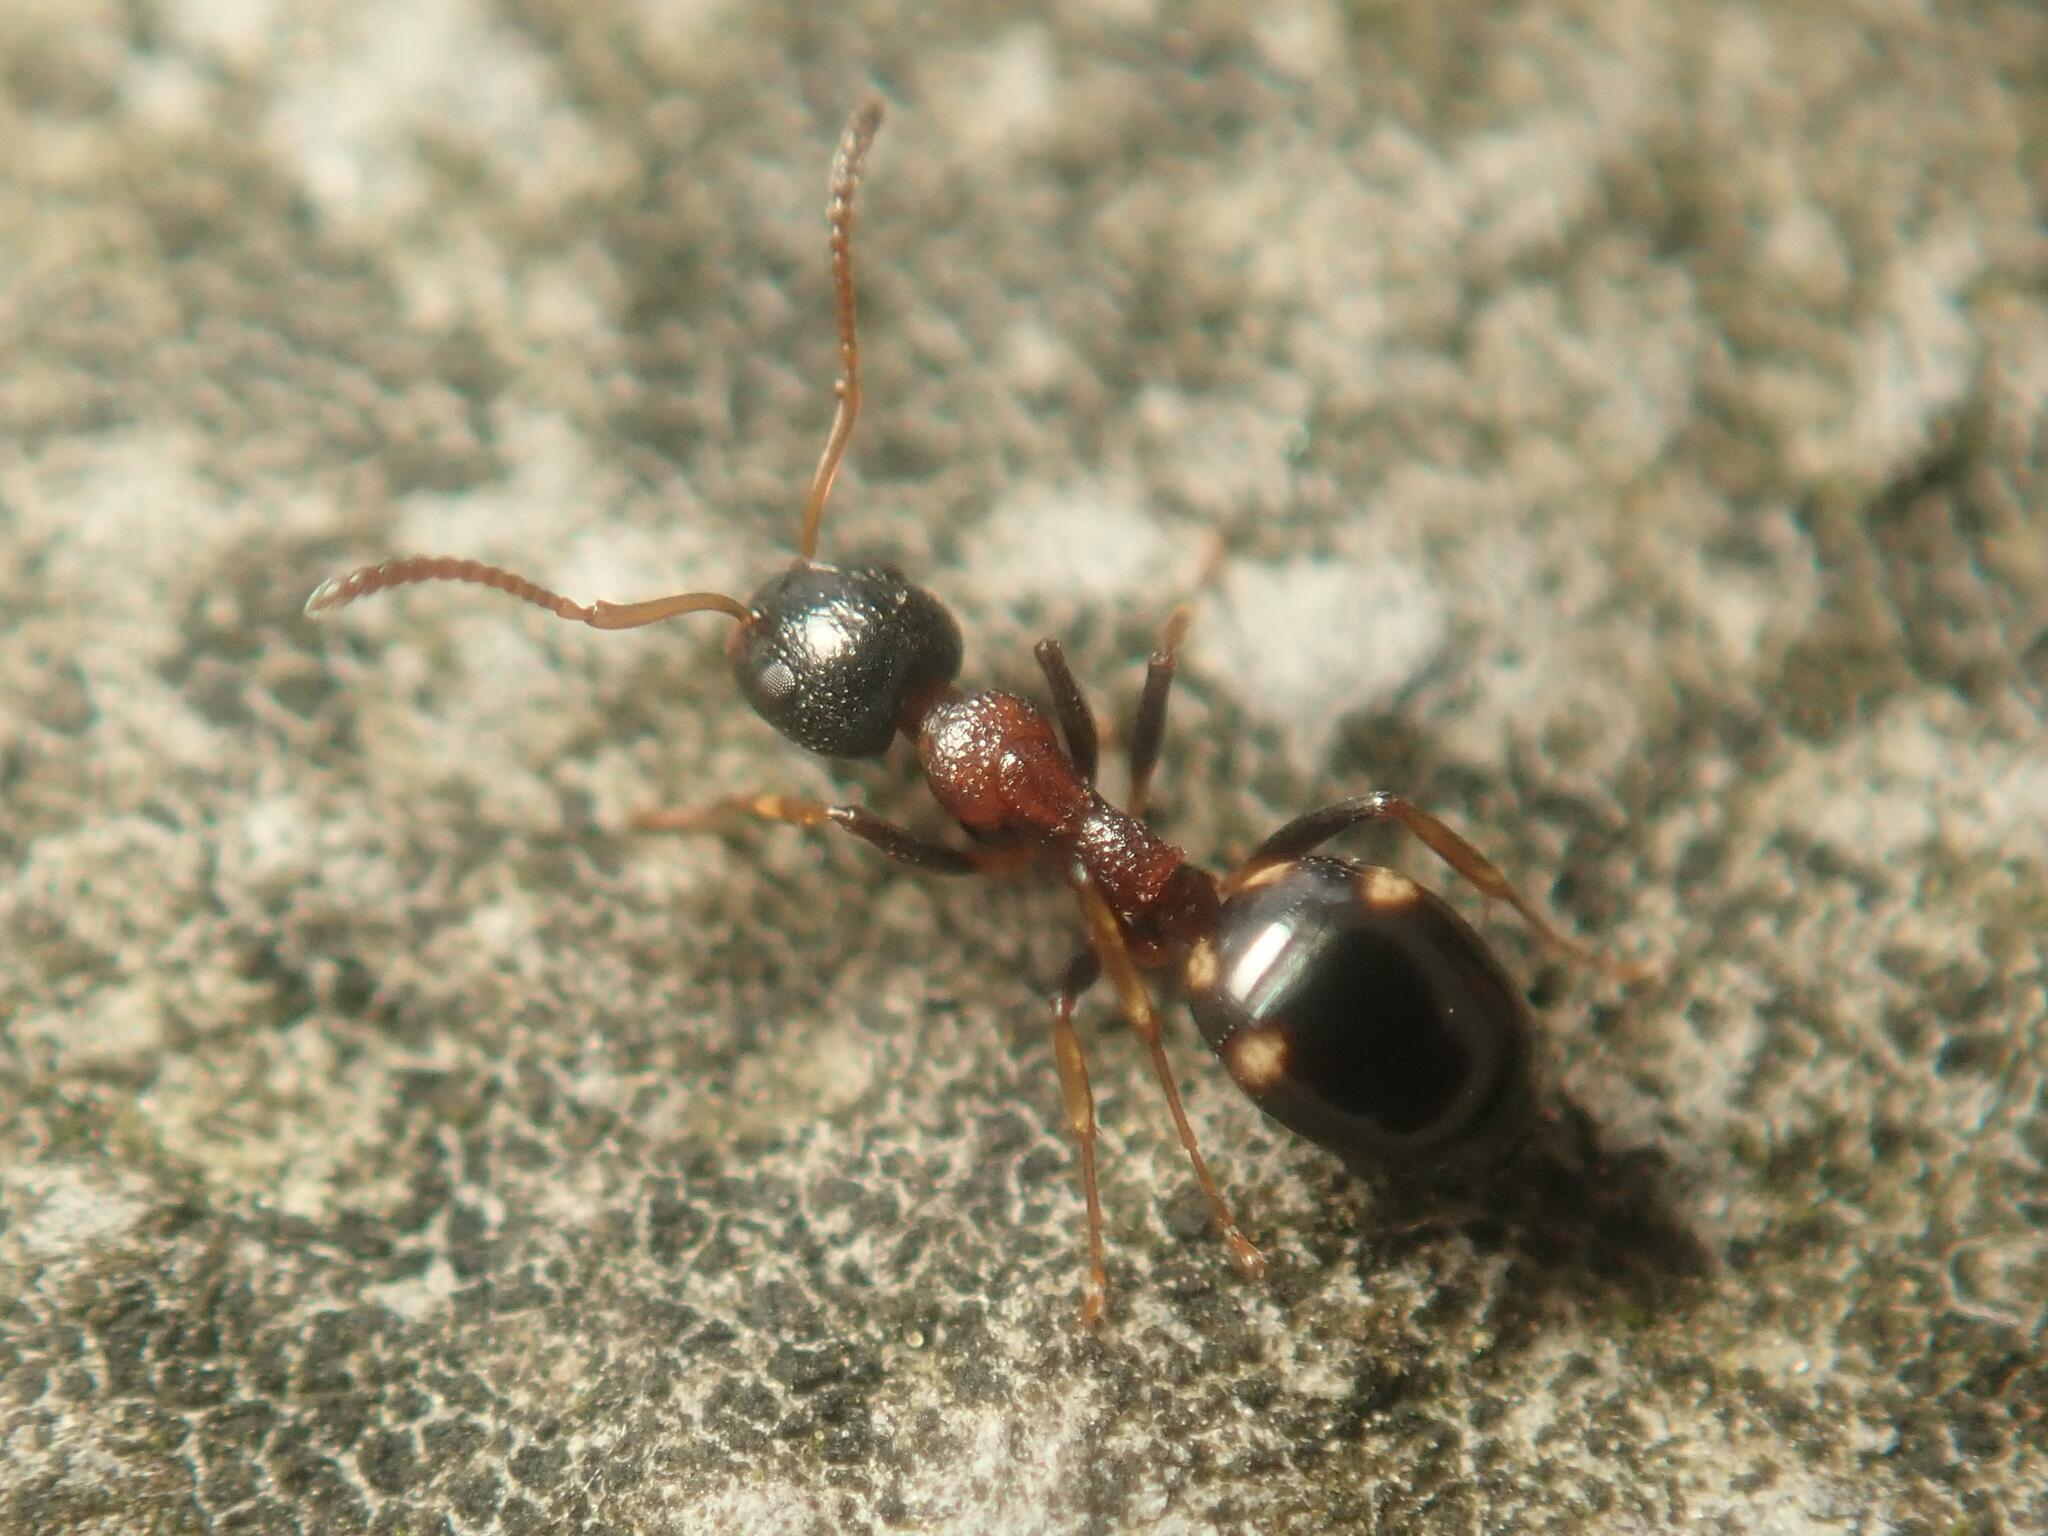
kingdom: Animalia
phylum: Arthropoda
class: Insecta
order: Hymenoptera
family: Formicidae
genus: Dolichoderus
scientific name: Dolichoderus quadripunctatus
